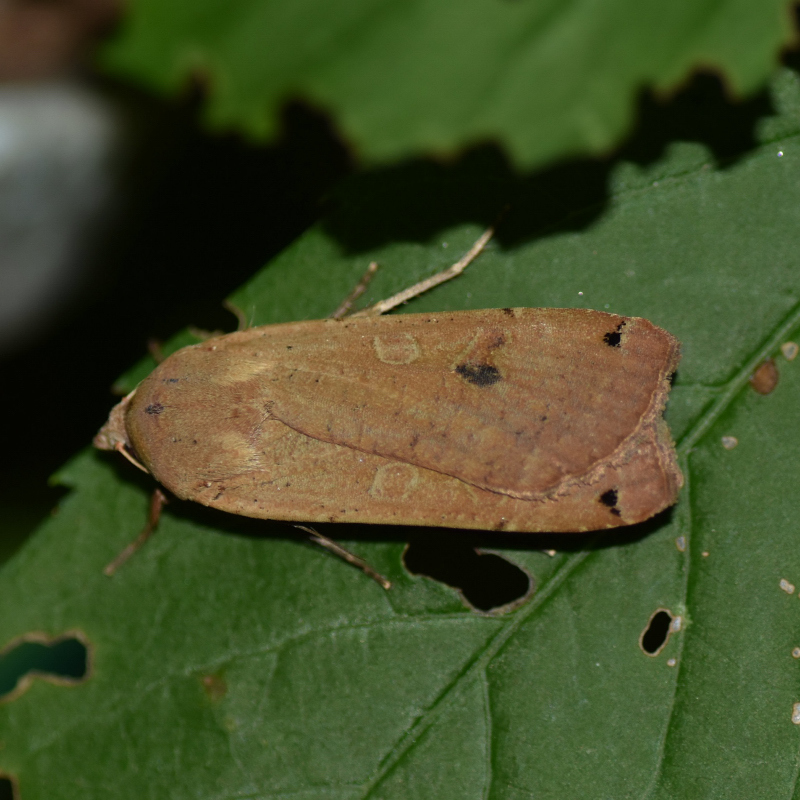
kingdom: Animalia
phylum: Arthropoda
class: Insecta
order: Lepidoptera
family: Noctuidae
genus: Noctua
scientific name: Noctua pronuba
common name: Large yellow underwing
